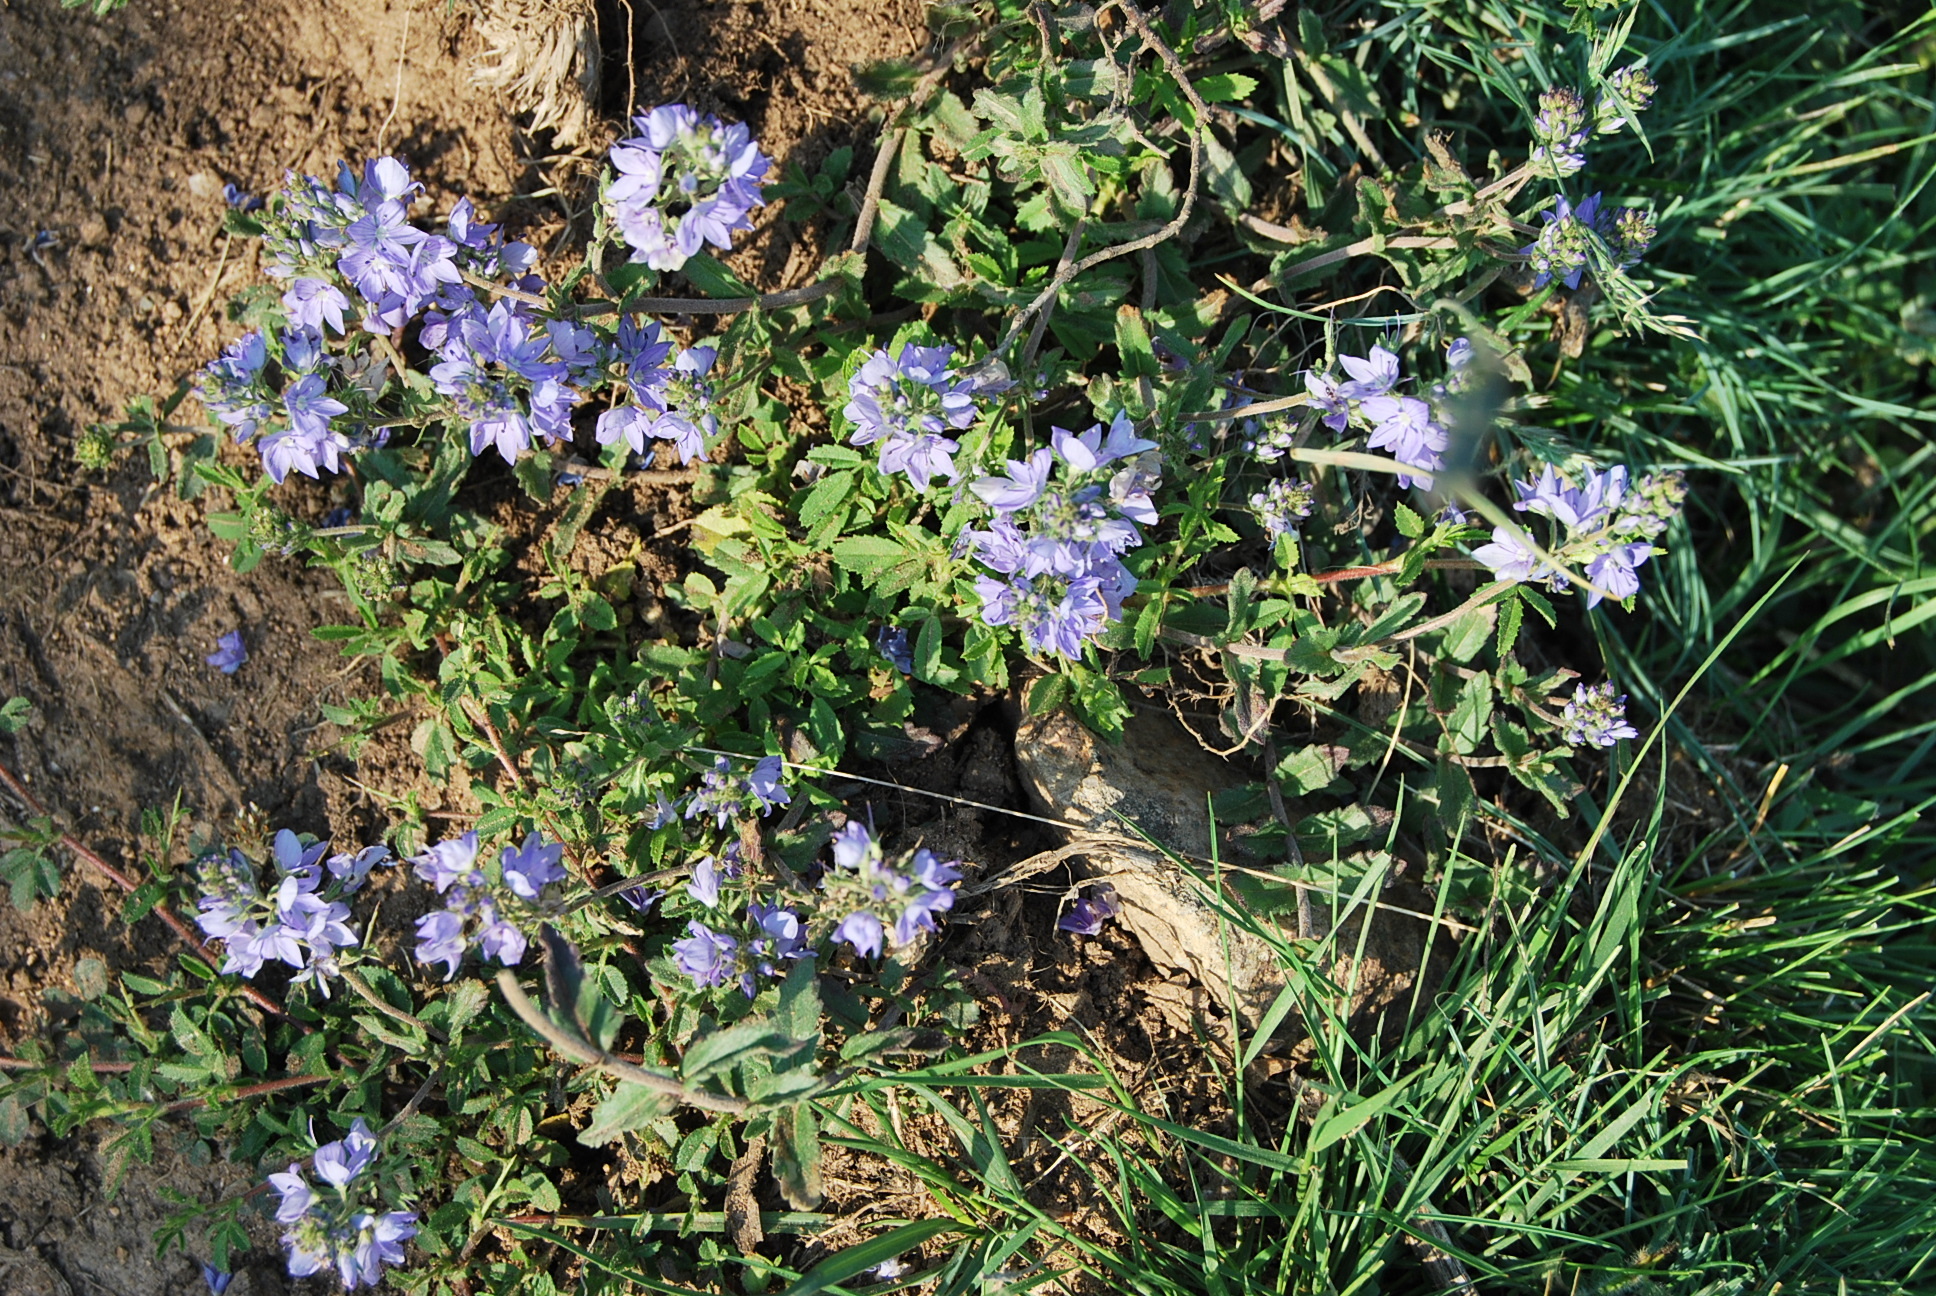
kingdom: Plantae
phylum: Tracheophyta
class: Magnoliopsida
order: Lamiales
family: Plantaginaceae
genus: Veronica
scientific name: Veronica orsiniana
